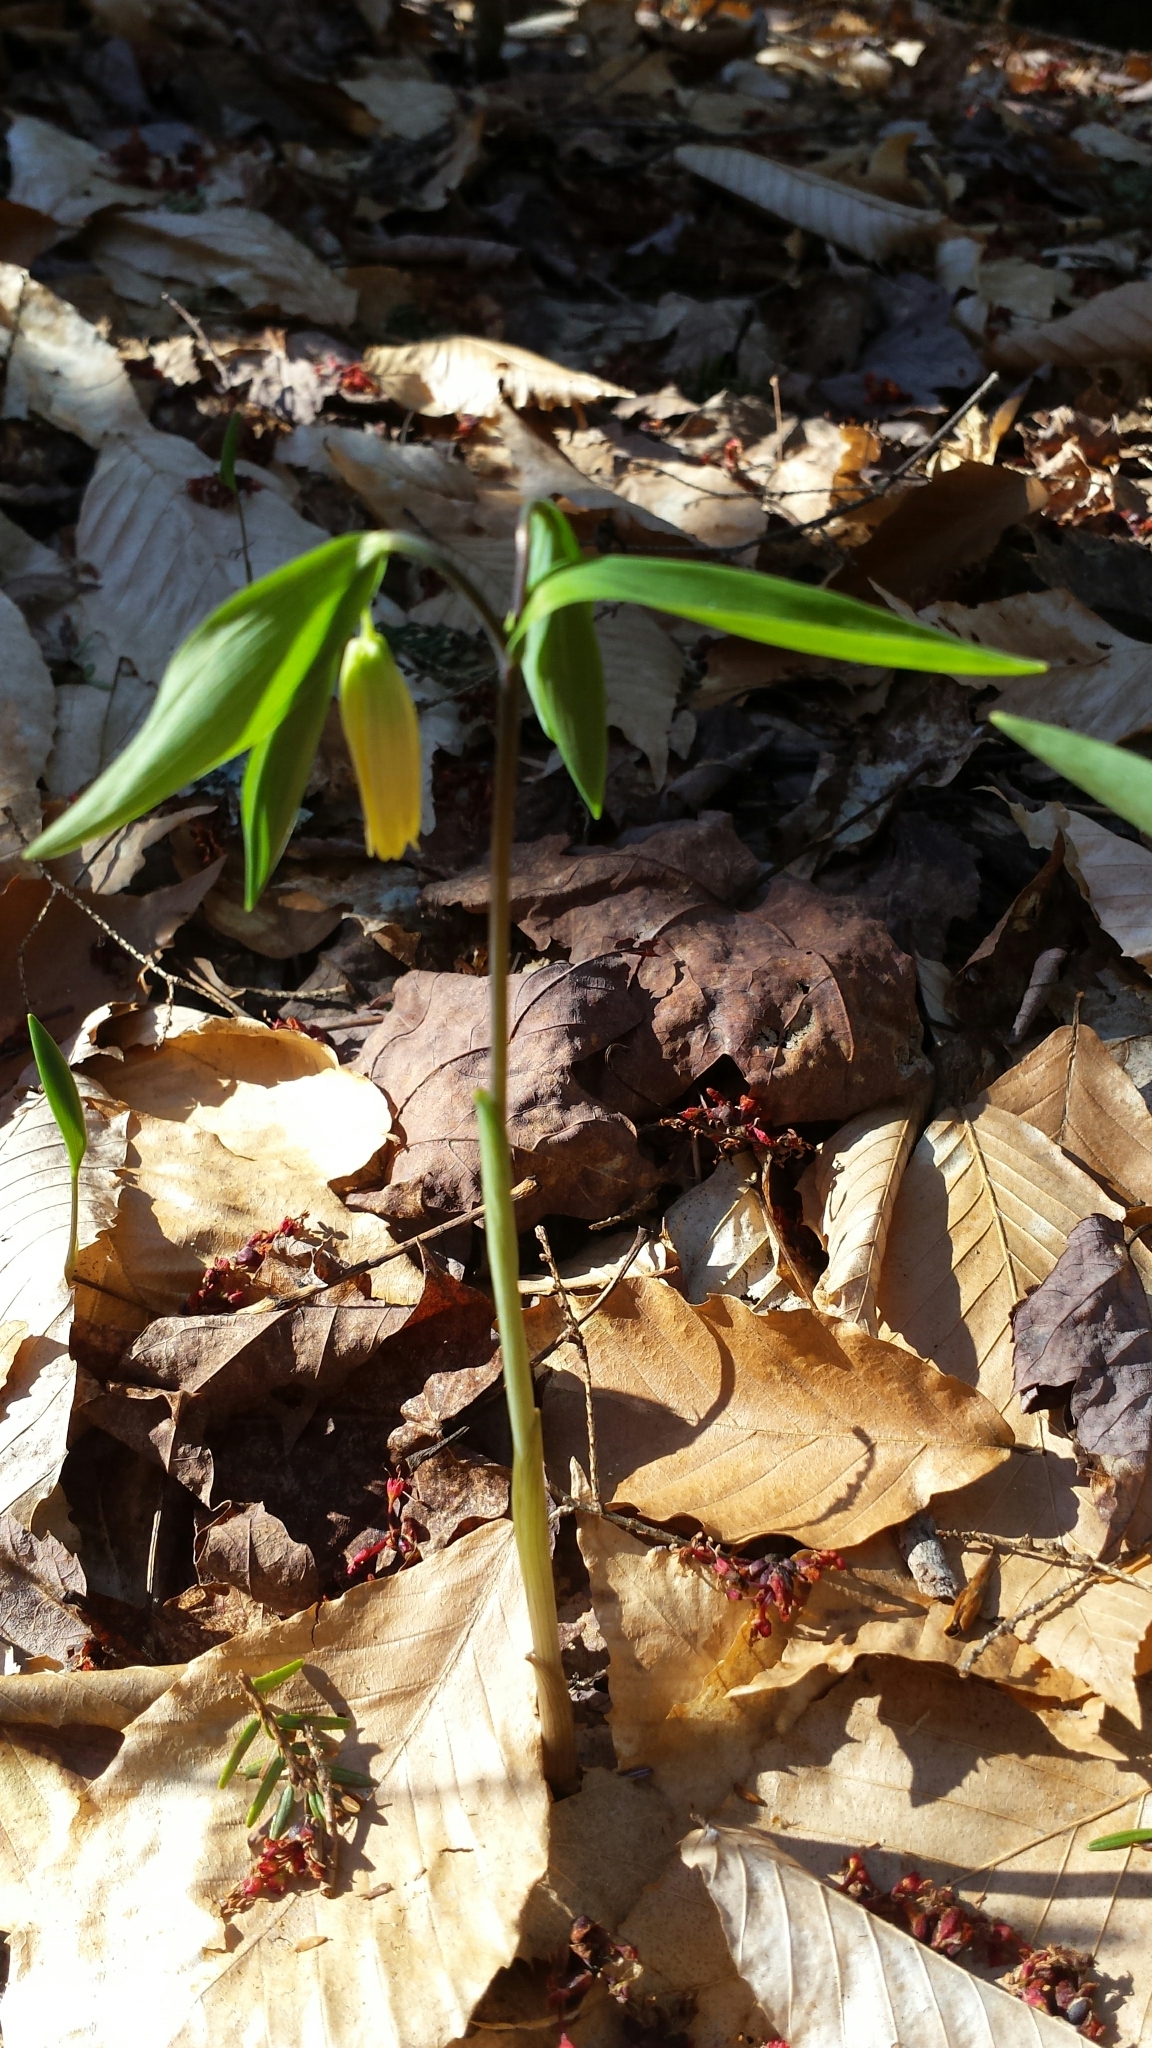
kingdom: Plantae
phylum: Tracheophyta
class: Liliopsida
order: Liliales
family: Colchicaceae
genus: Uvularia
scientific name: Uvularia sessilifolia
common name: Straw-lily
